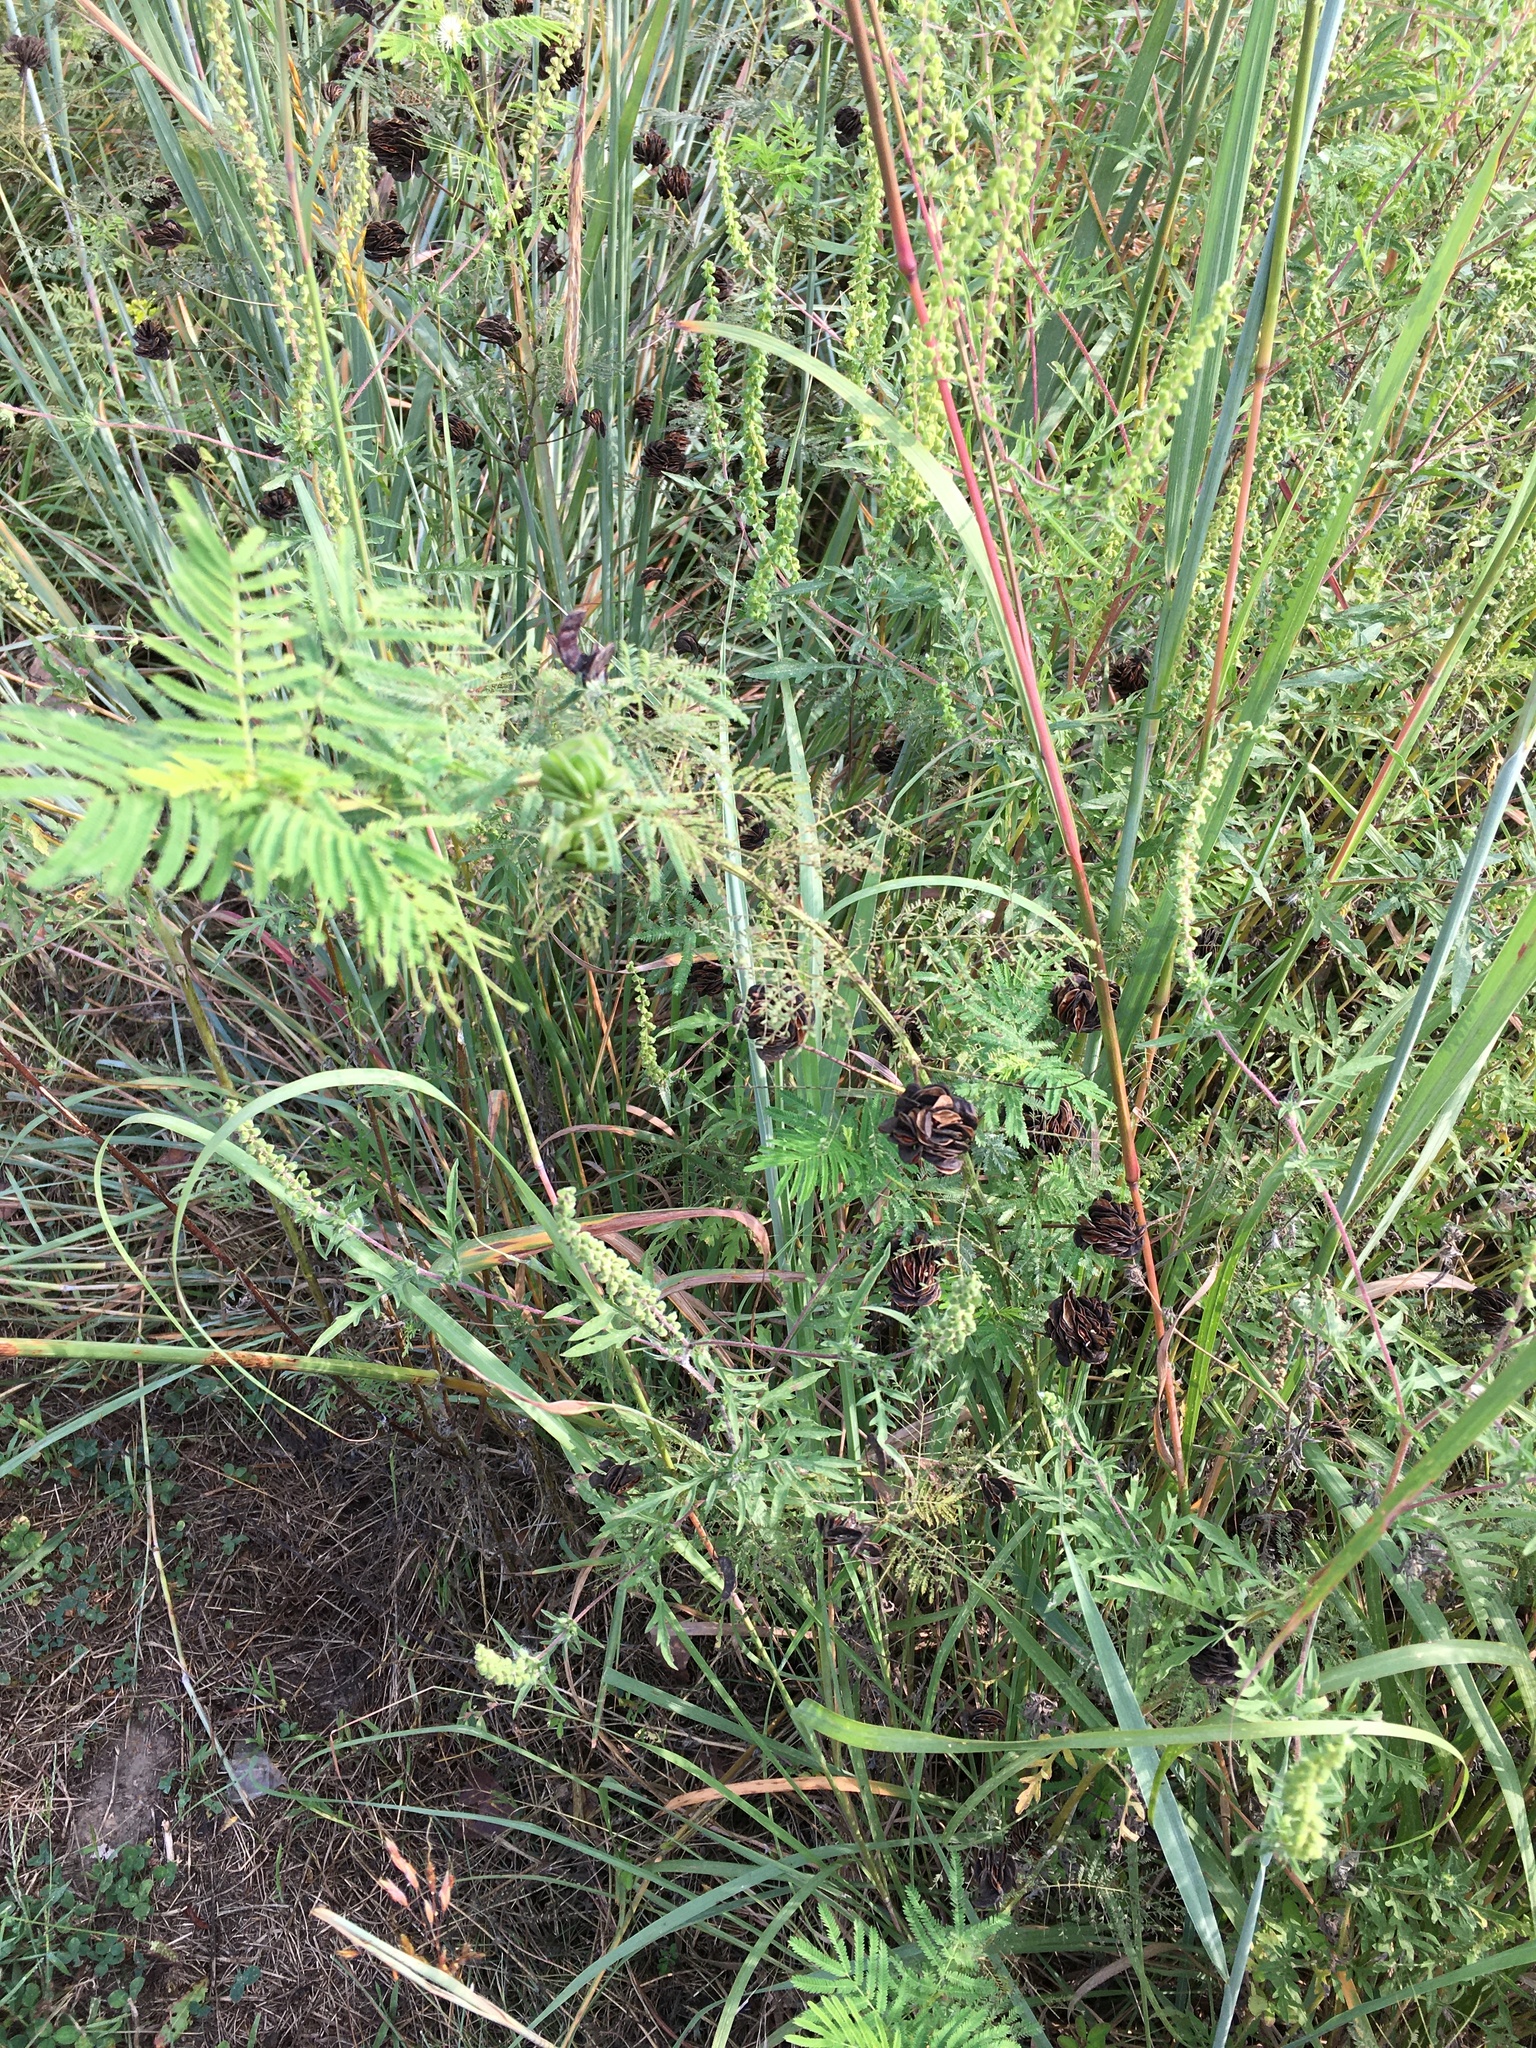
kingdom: Plantae
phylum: Tracheophyta
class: Magnoliopsida
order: Fabales
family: Fabaceae
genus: Desmanthus
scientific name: Desmanthus illinoensis
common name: Illinois bundle-flower
